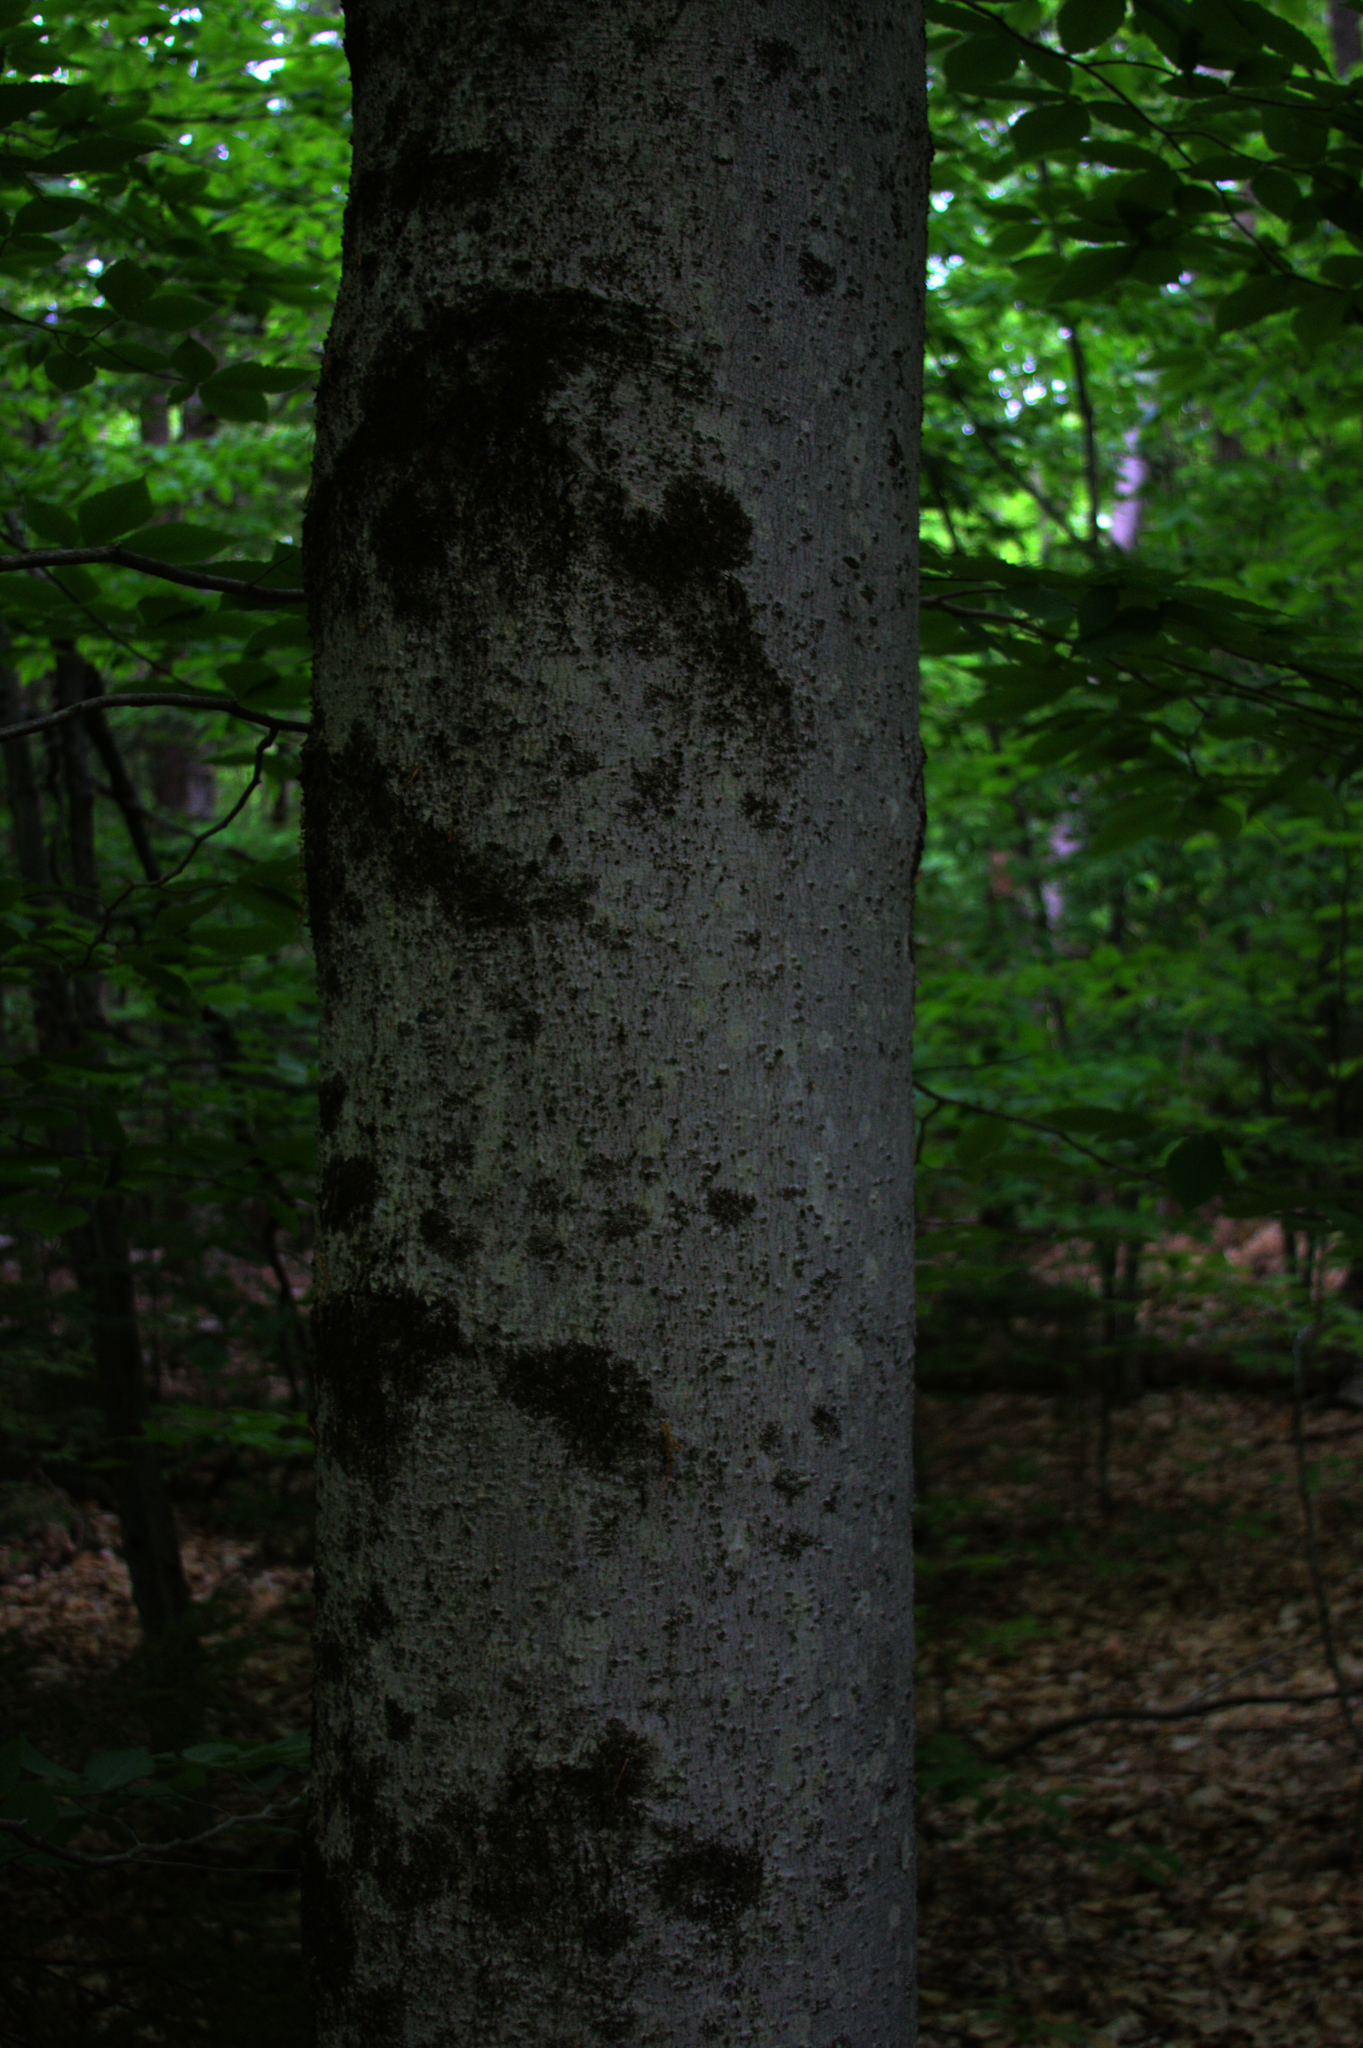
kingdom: Plantae
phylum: Tracheophyta
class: Magnoliopsida
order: Fagales
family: Fagaceae
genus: Fagus
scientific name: Fagus grandifolia
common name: American beech
